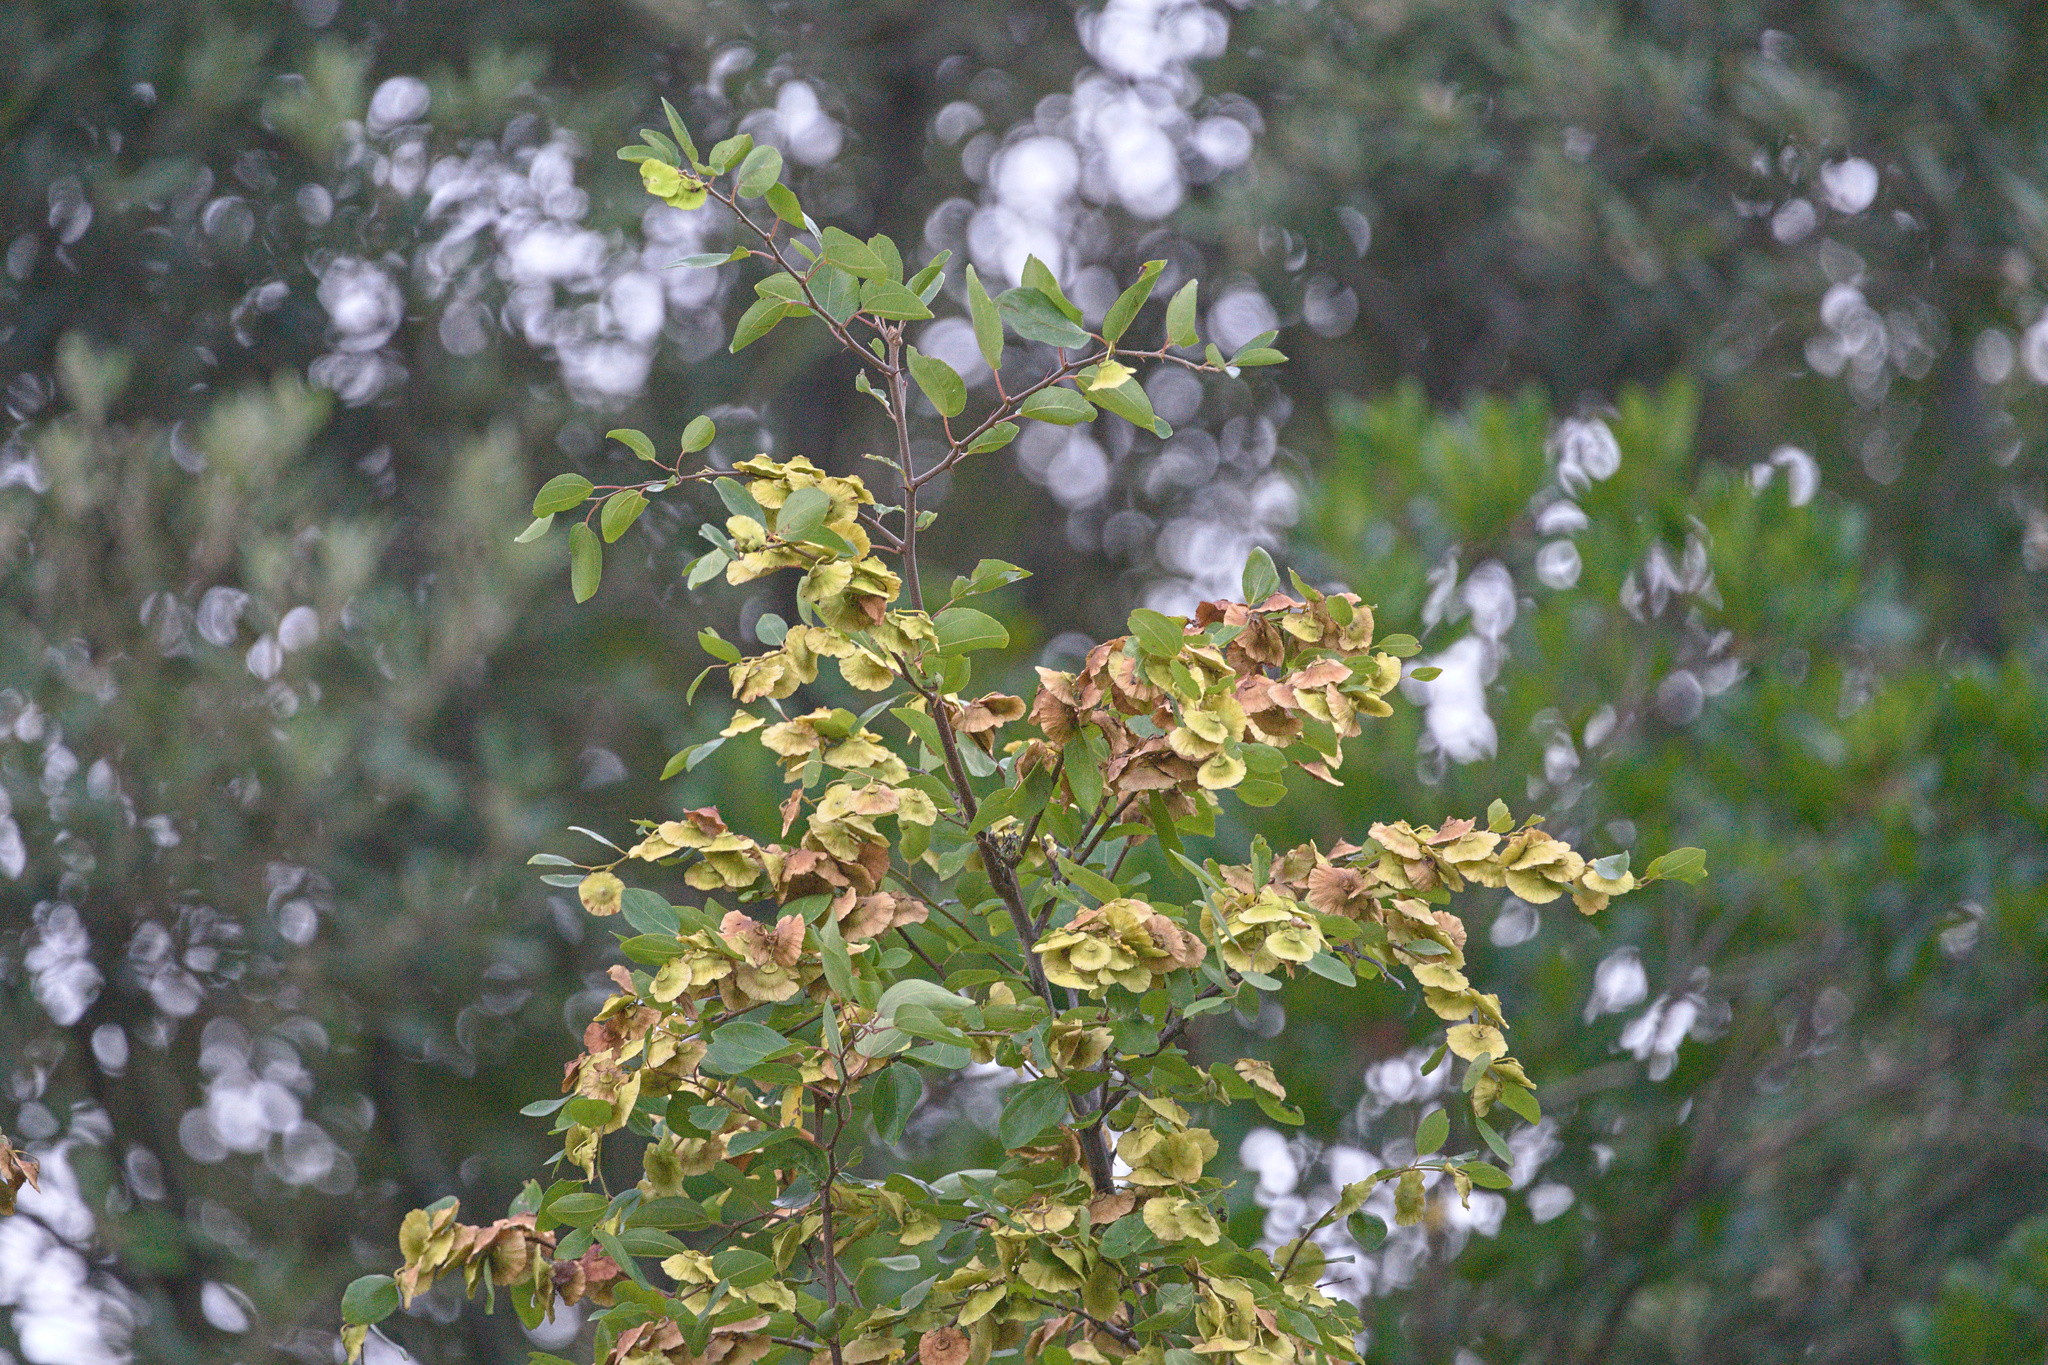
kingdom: Plantae
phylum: Tracheophyta
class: Magnoliopsida
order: Rosales
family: Rhamnaceae
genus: Paliurus
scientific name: Paliurus spina-christi
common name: Jeruselem thorn
